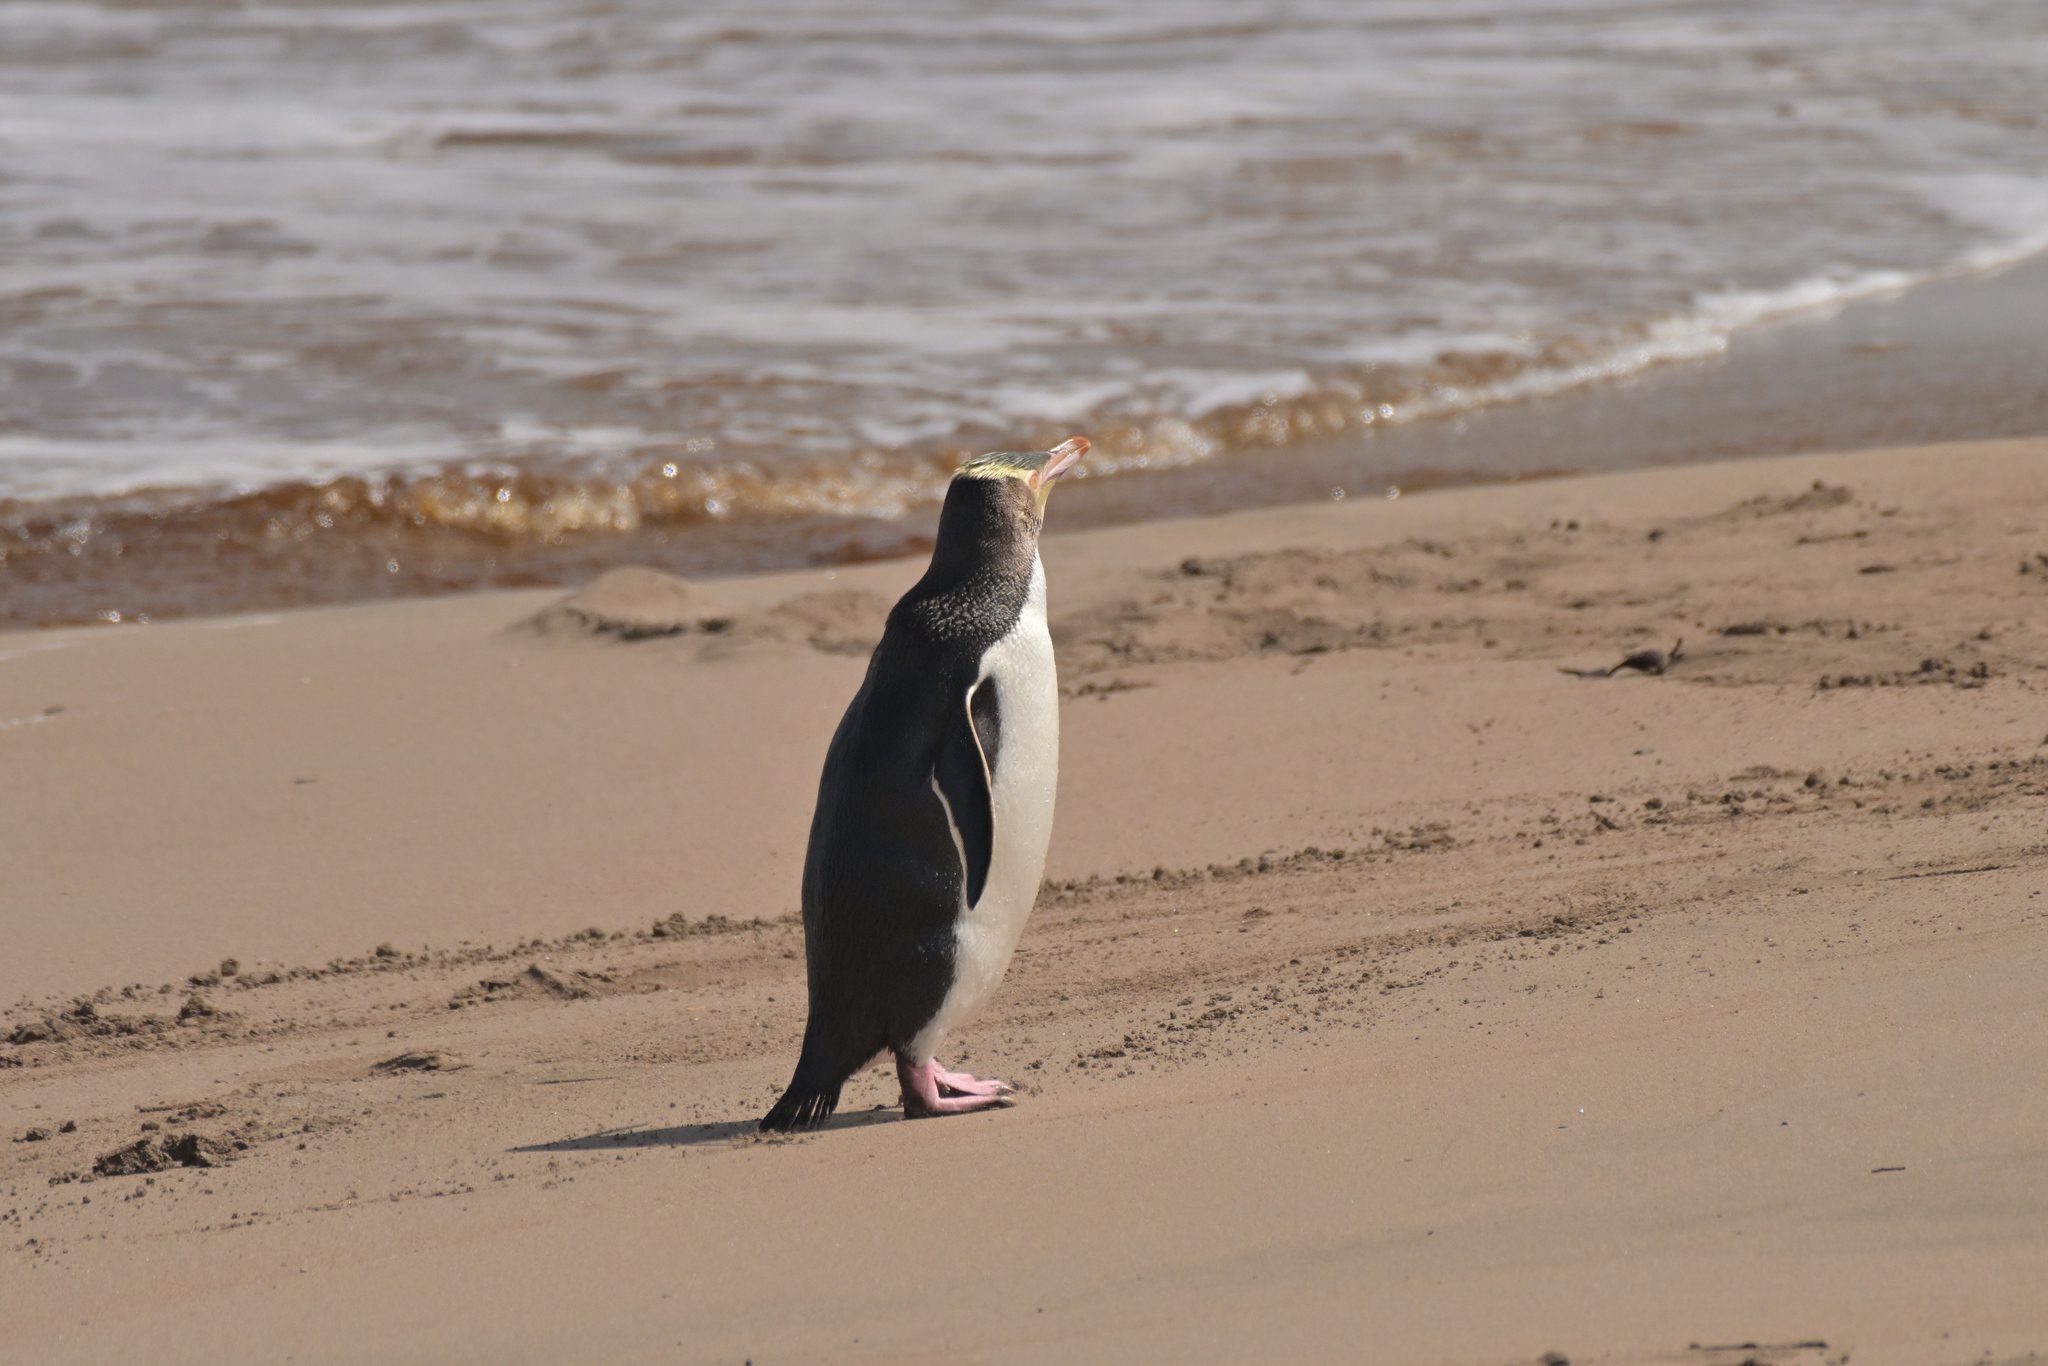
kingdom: Animalia
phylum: Chordata
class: Aves
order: Sphenisciformes
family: Spheniscidae
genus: Megadyptes
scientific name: Megadyptes antipodes
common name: Yellow-eyed penguin
